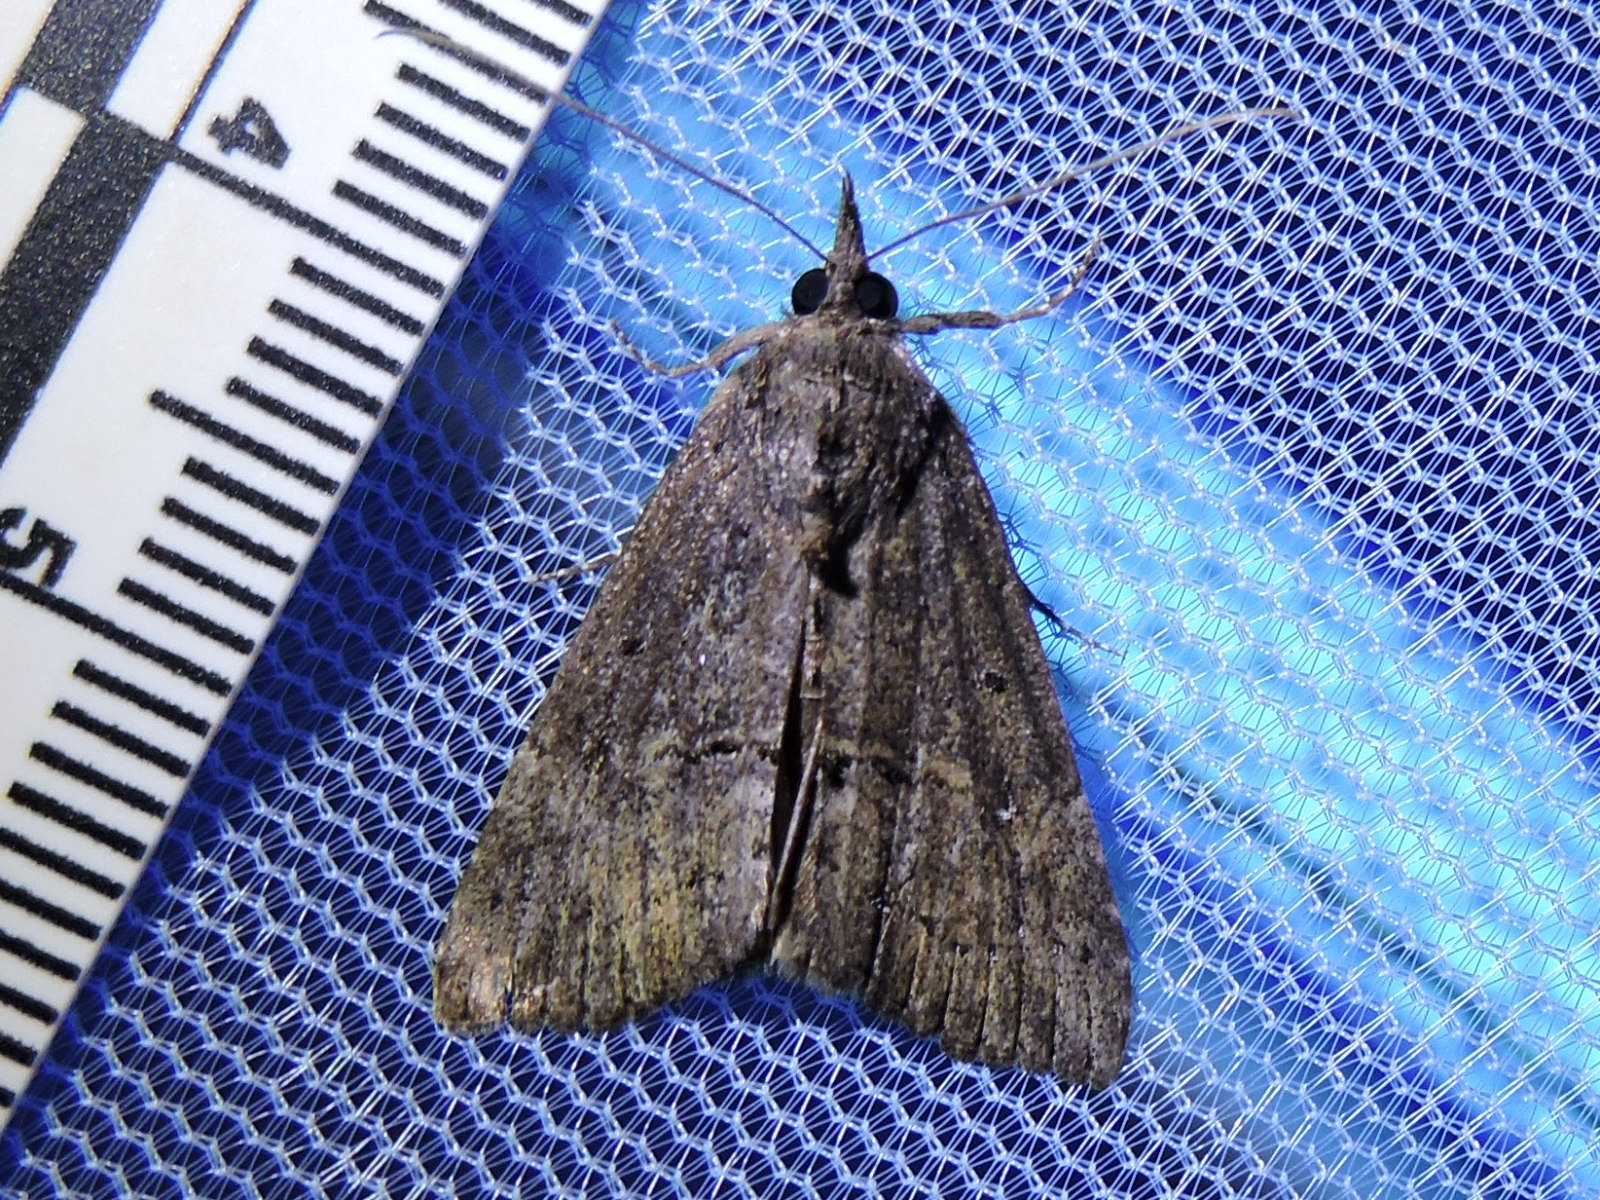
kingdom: Animalia
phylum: Arthropoda
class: Insecta
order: Lepidoptera
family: Erebidae
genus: Hypena
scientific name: Hypena scabra
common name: Green cloverworm
